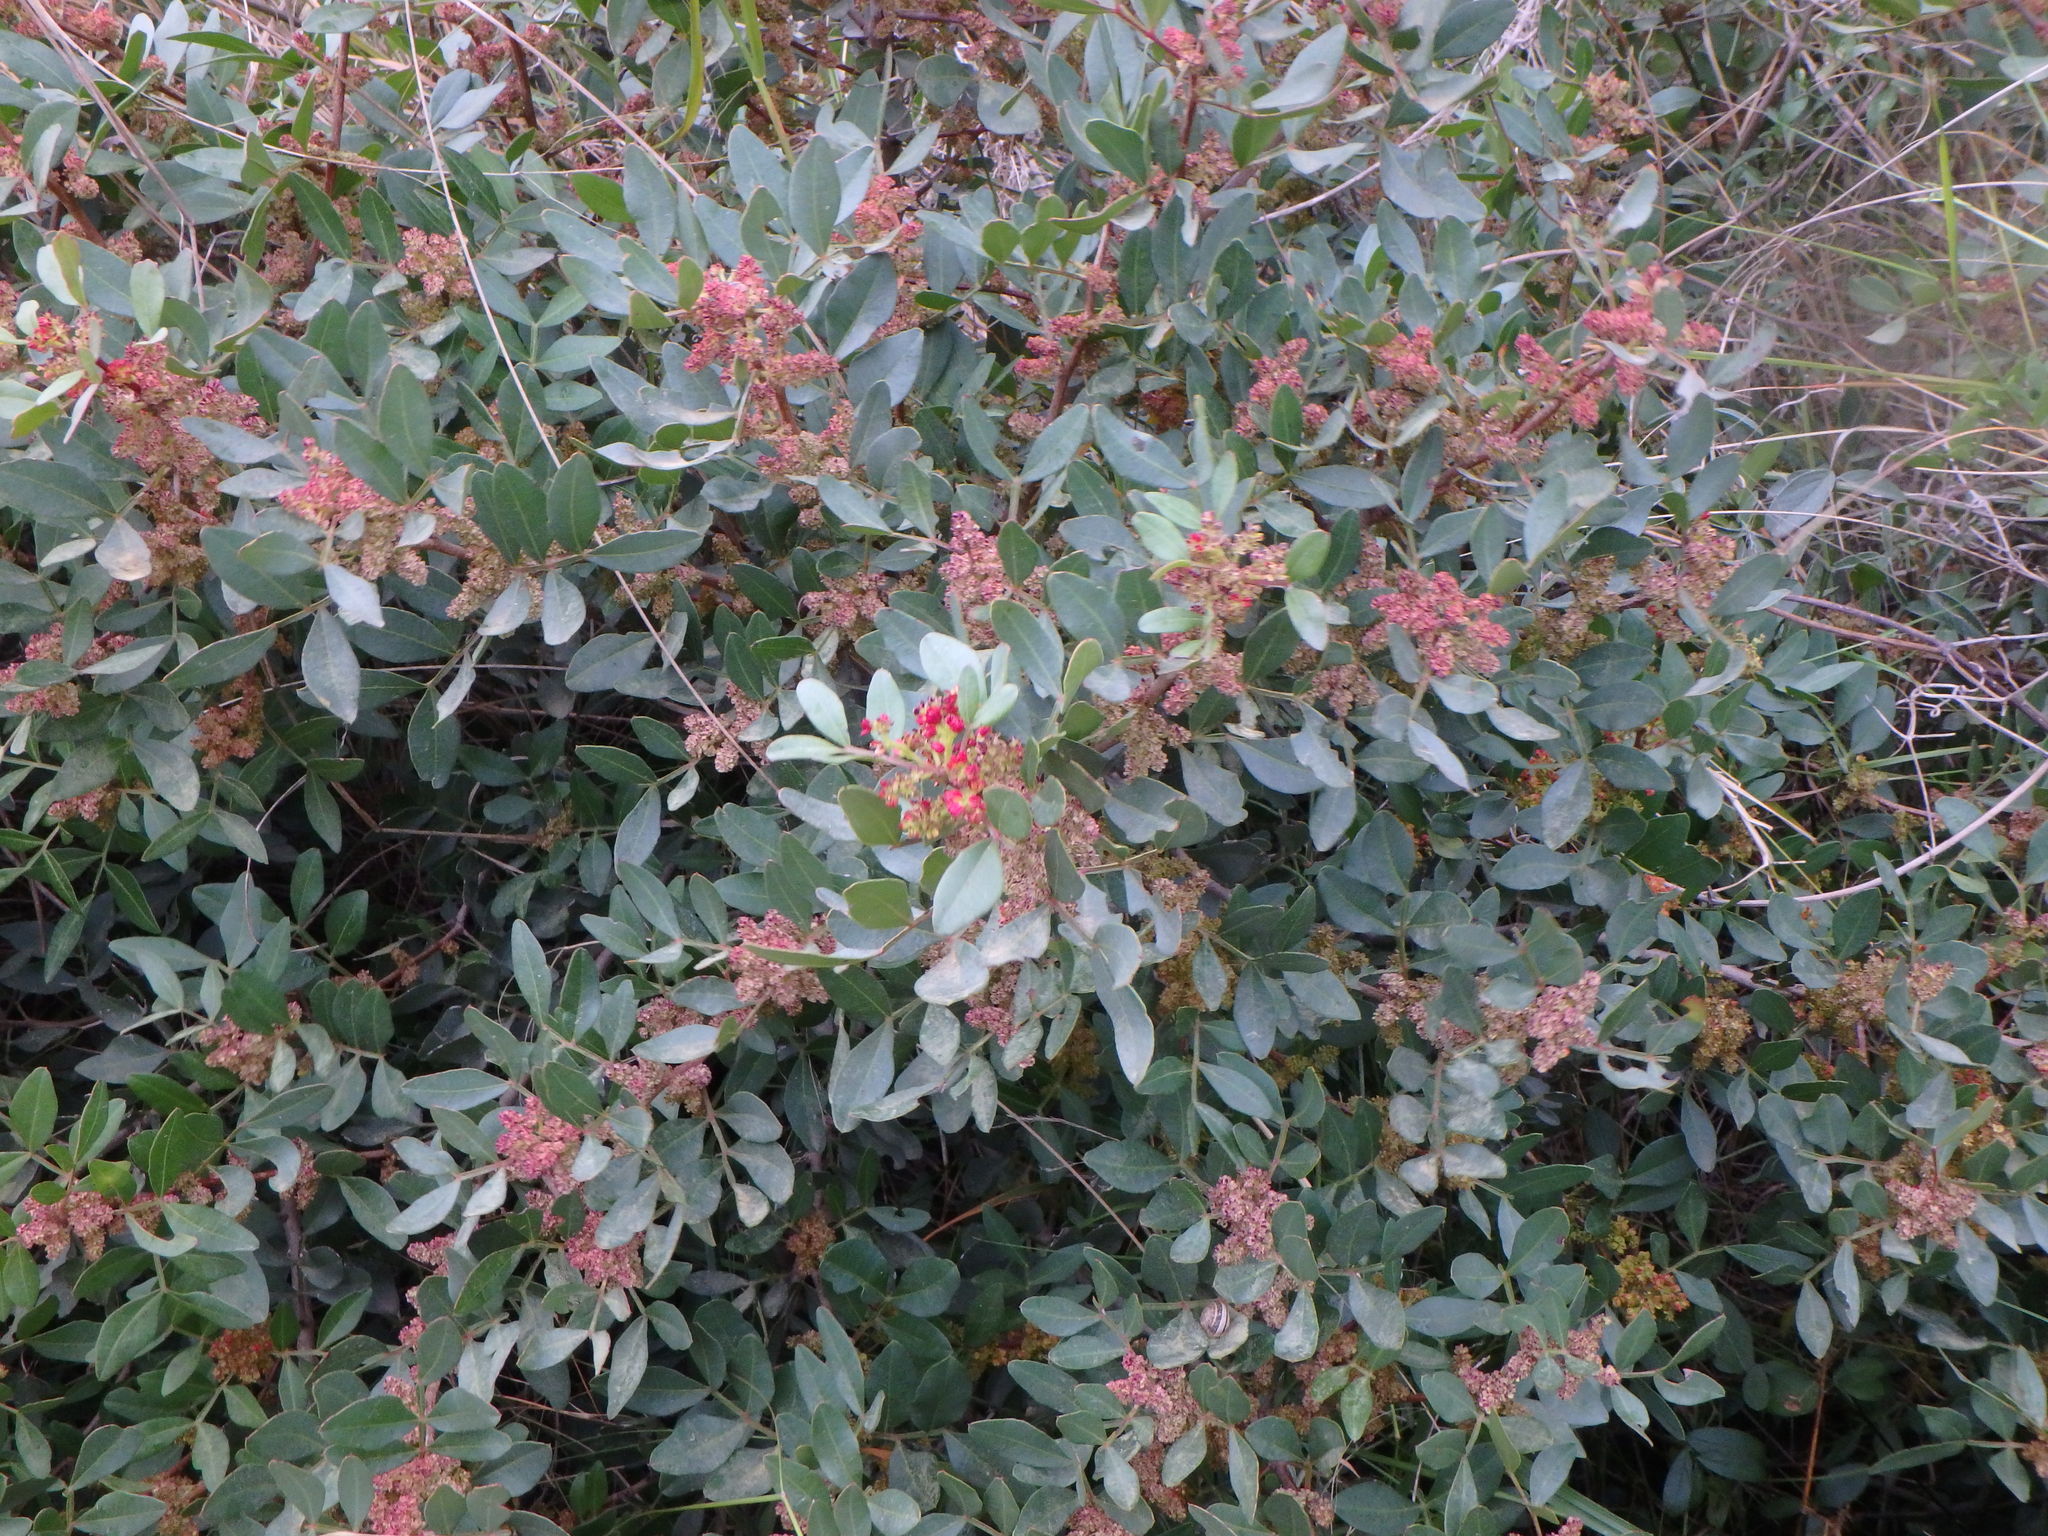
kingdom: Plantae
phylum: Tracheophyta
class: Magnoliopsida
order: Sapindales
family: Anacardiaceae
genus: Pistacia
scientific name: Pistacia lentiscus
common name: Lentisk
